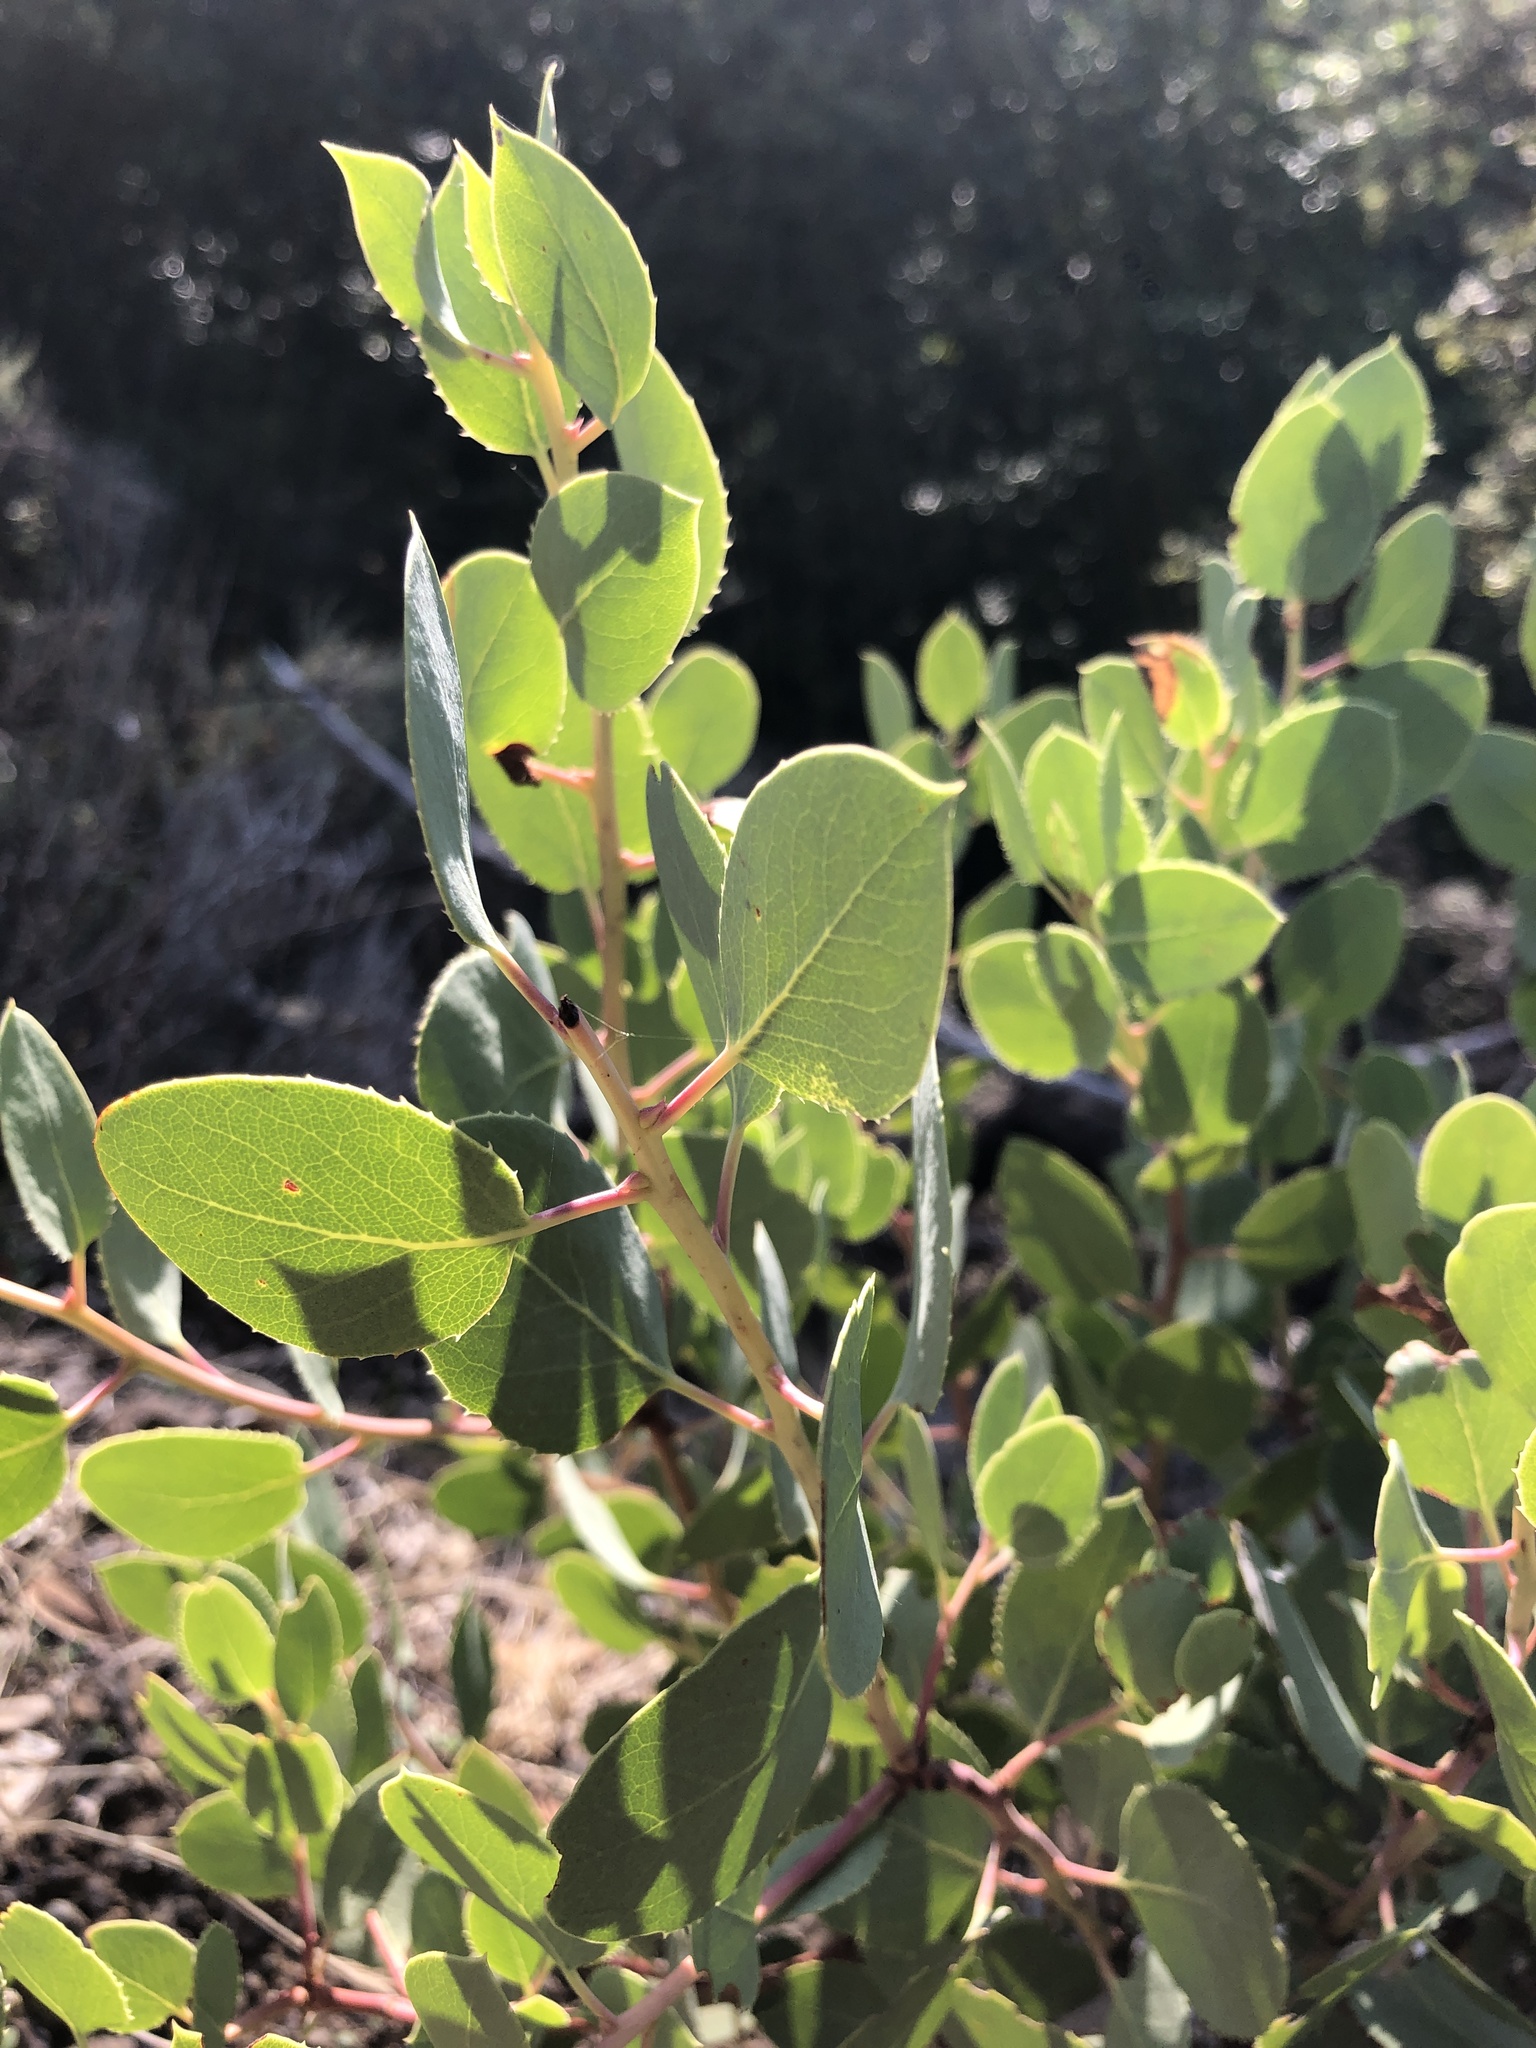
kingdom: Plantae
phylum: Tracheophyta
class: Magnoliopsida
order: Ericales
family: Ericaceae
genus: Arctostaphylos
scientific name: Arctostaphylos glauca
